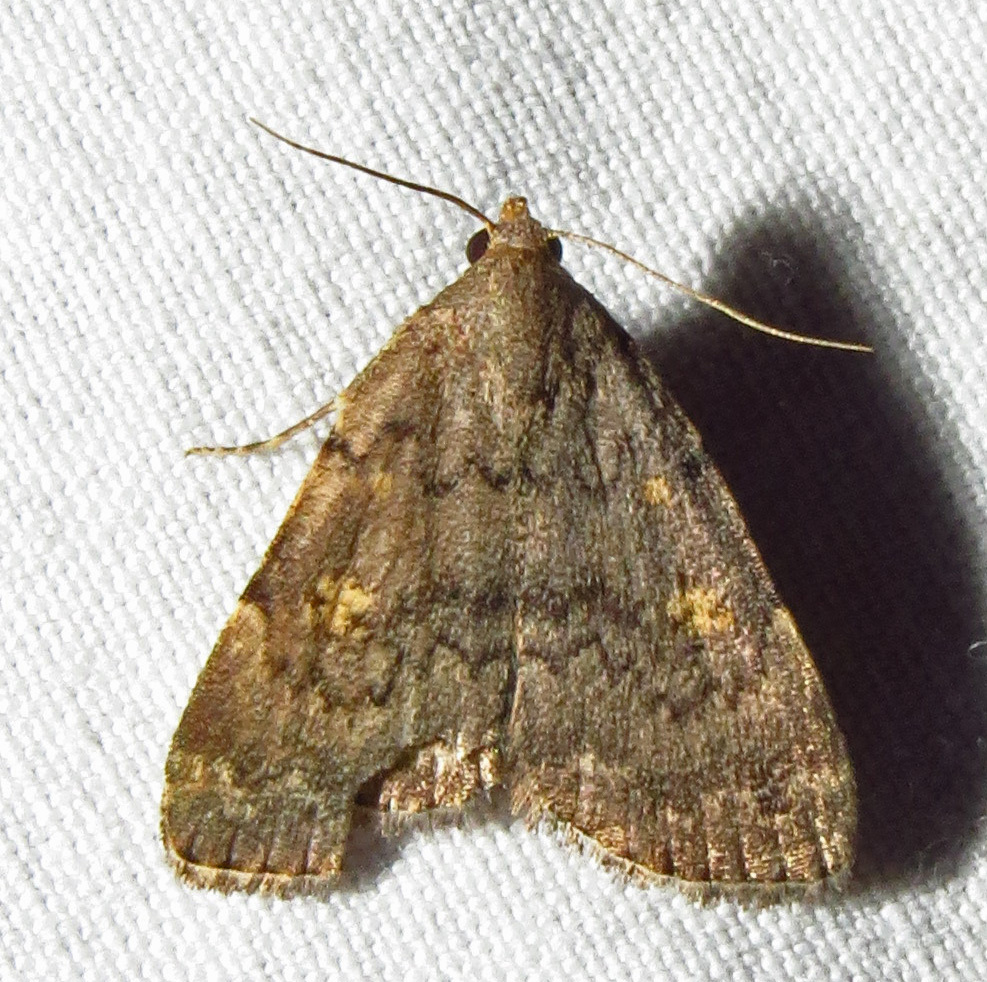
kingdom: Animalia
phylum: Arthropoda
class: Insecta
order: Lepidoptera
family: Erebidae
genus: Idia
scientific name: Idia aemula
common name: Common idia moth
